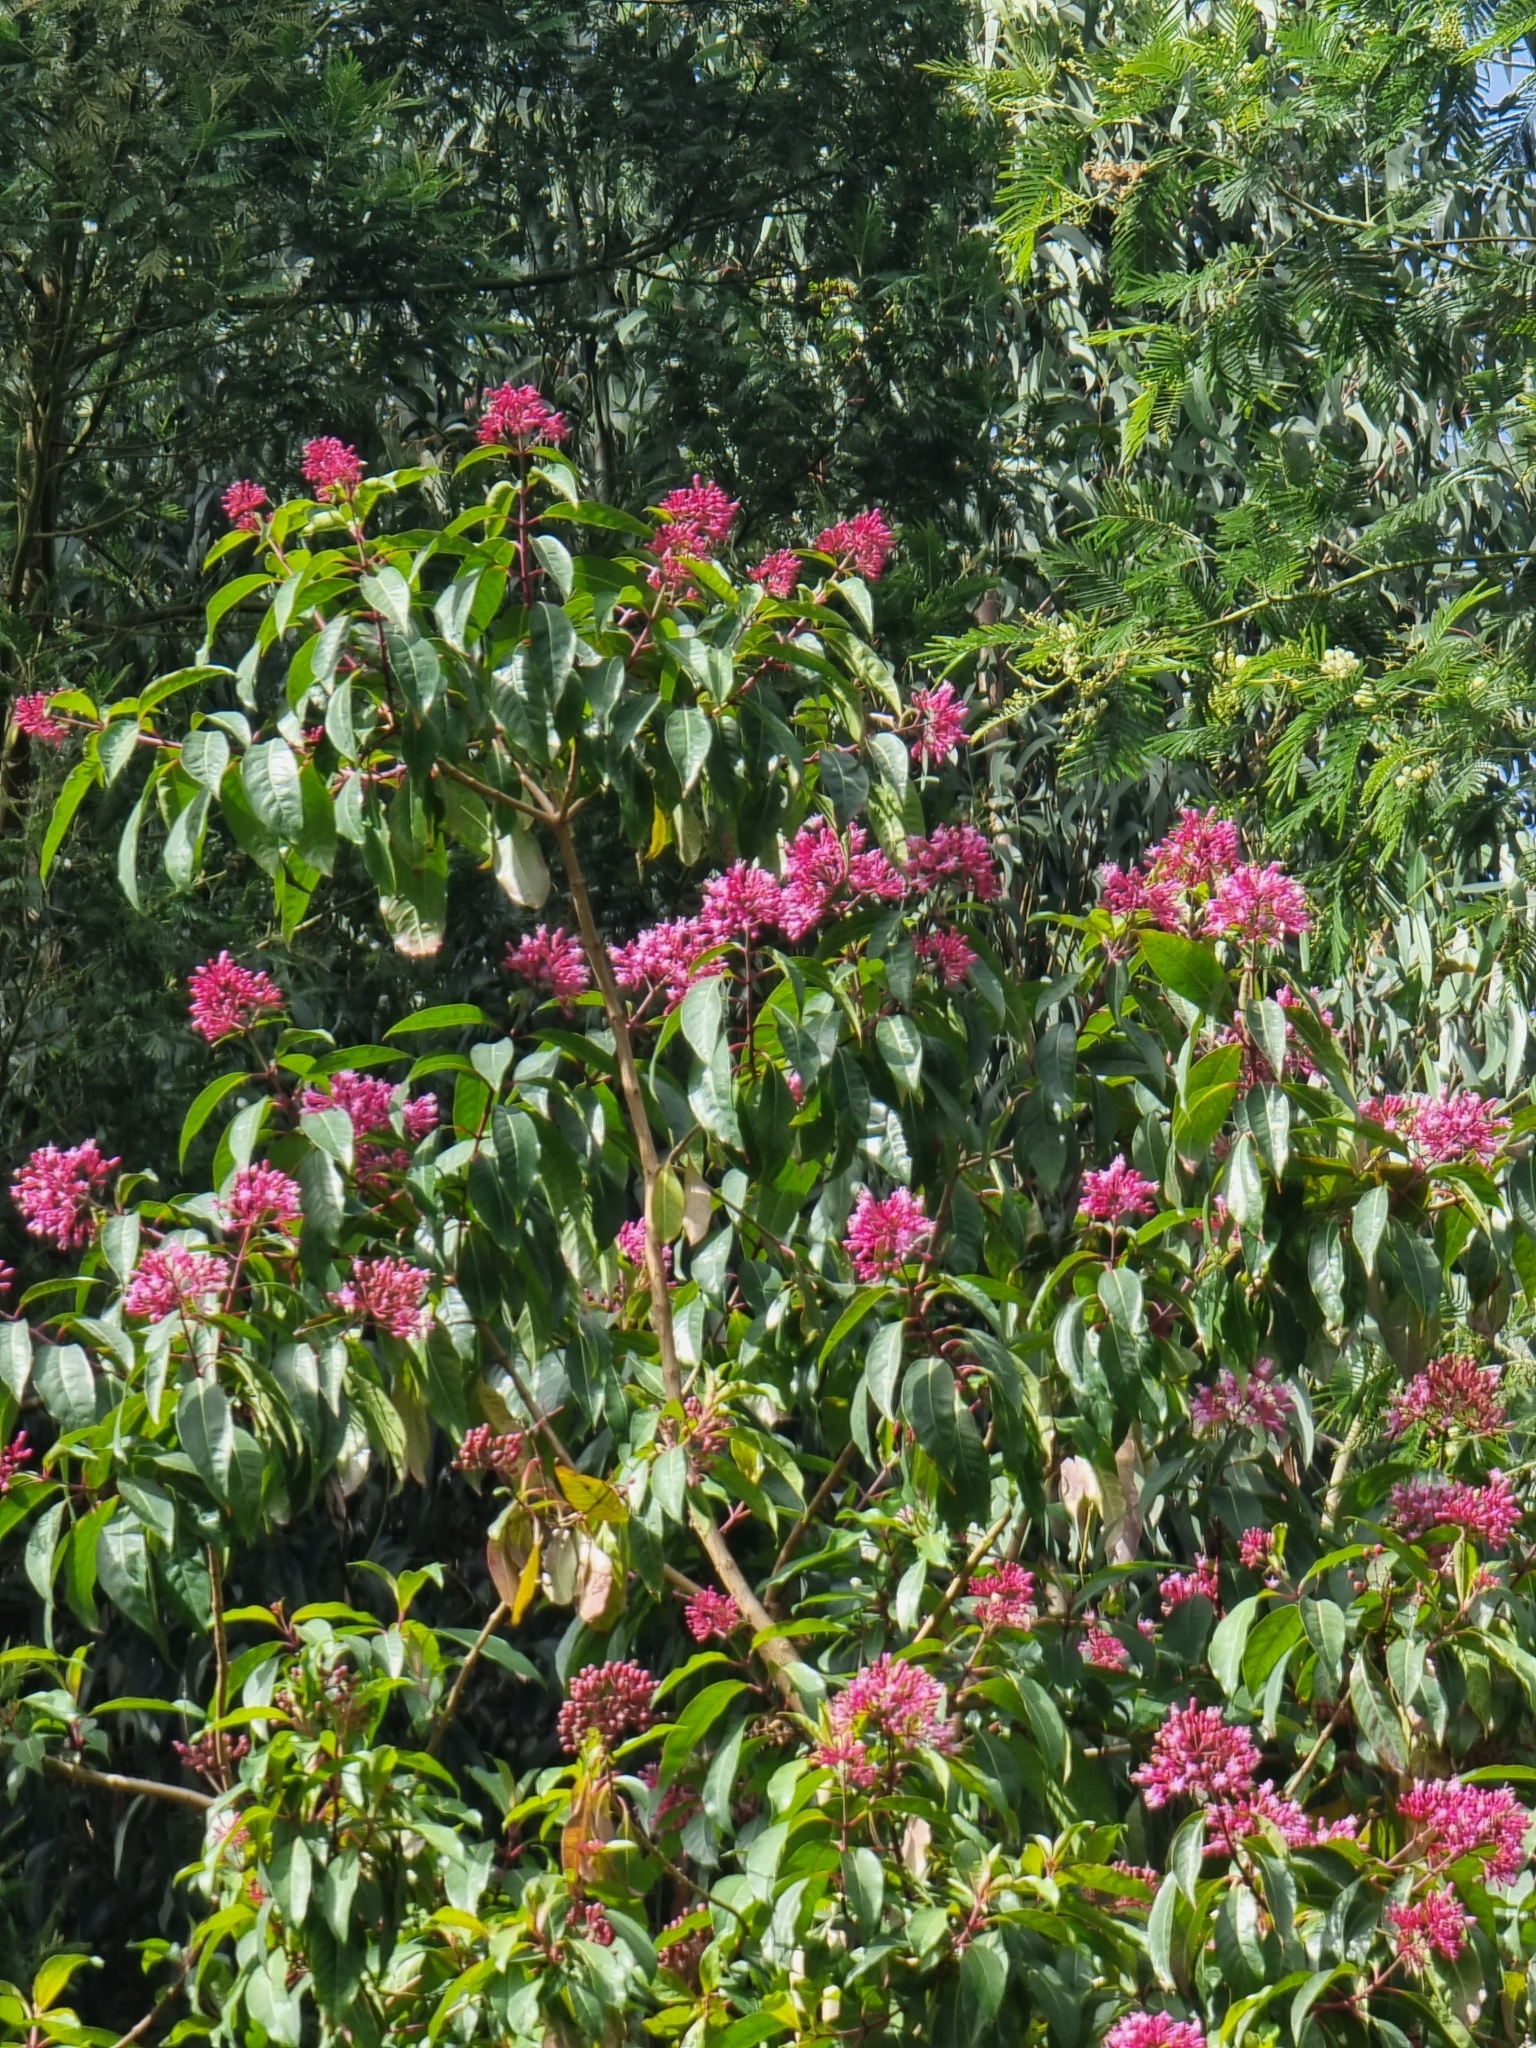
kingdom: Plantae
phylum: Tracheophyta
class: Magnoliopsida
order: Myrtales
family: Onagraceae
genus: Fuchsia
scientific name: Fuchsia arborescens
